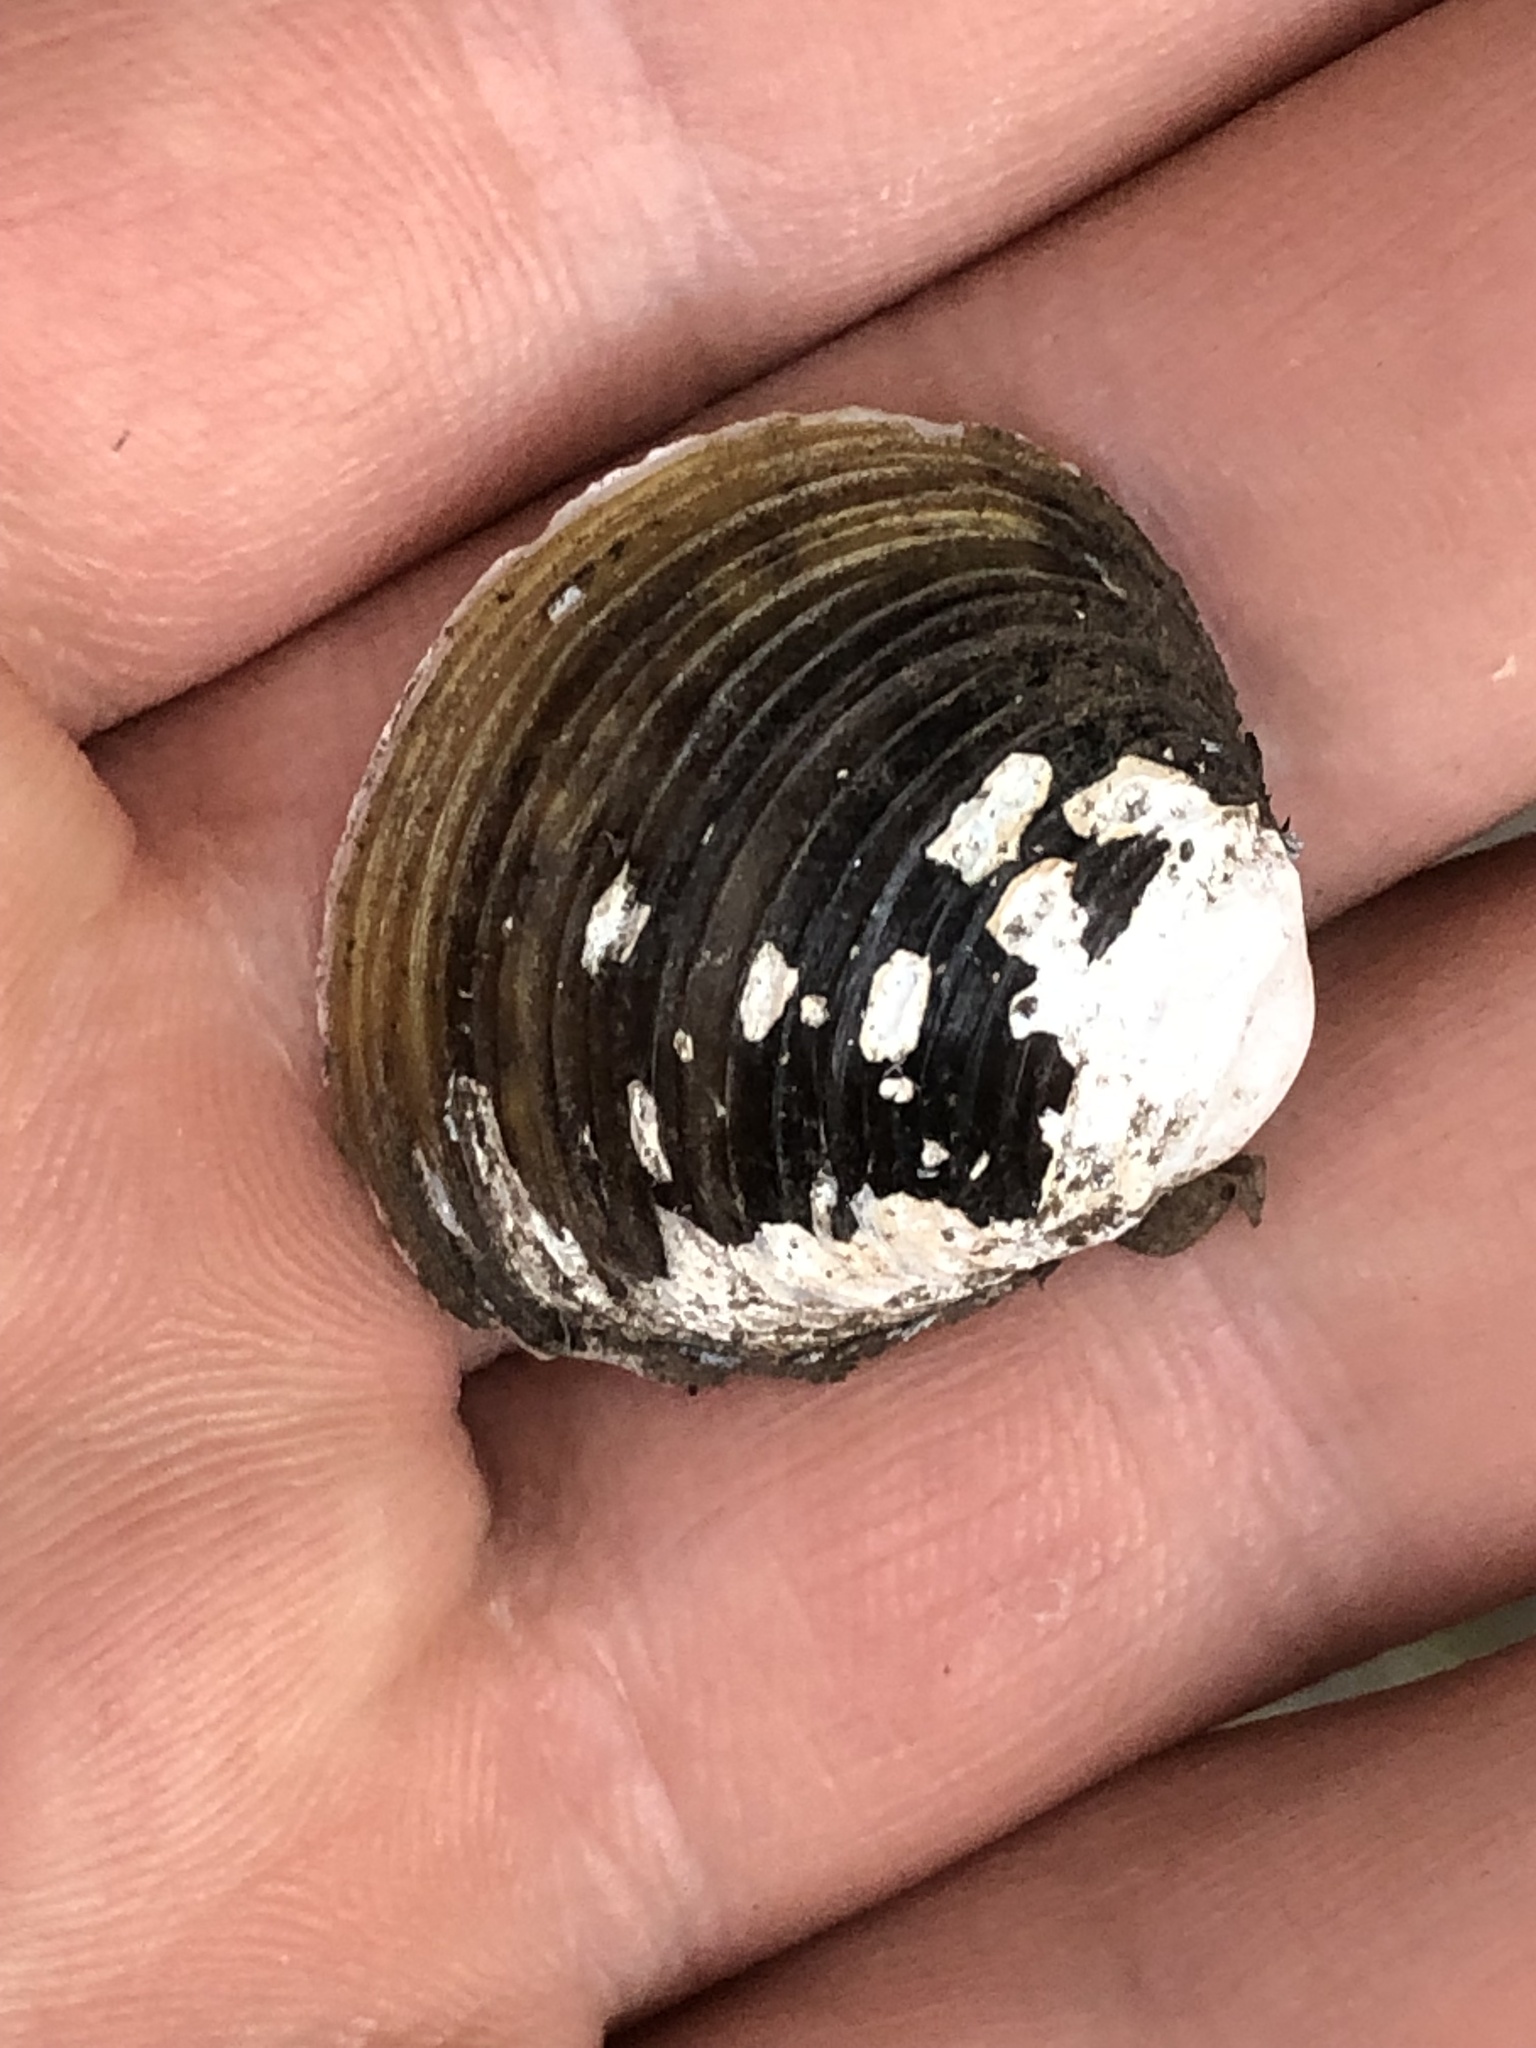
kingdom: Animalia
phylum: Mollusca
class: Bivalvia
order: Venerida
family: Cyrenidae
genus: Corbicula
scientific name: Corbicula fluminea
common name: Asian clam
